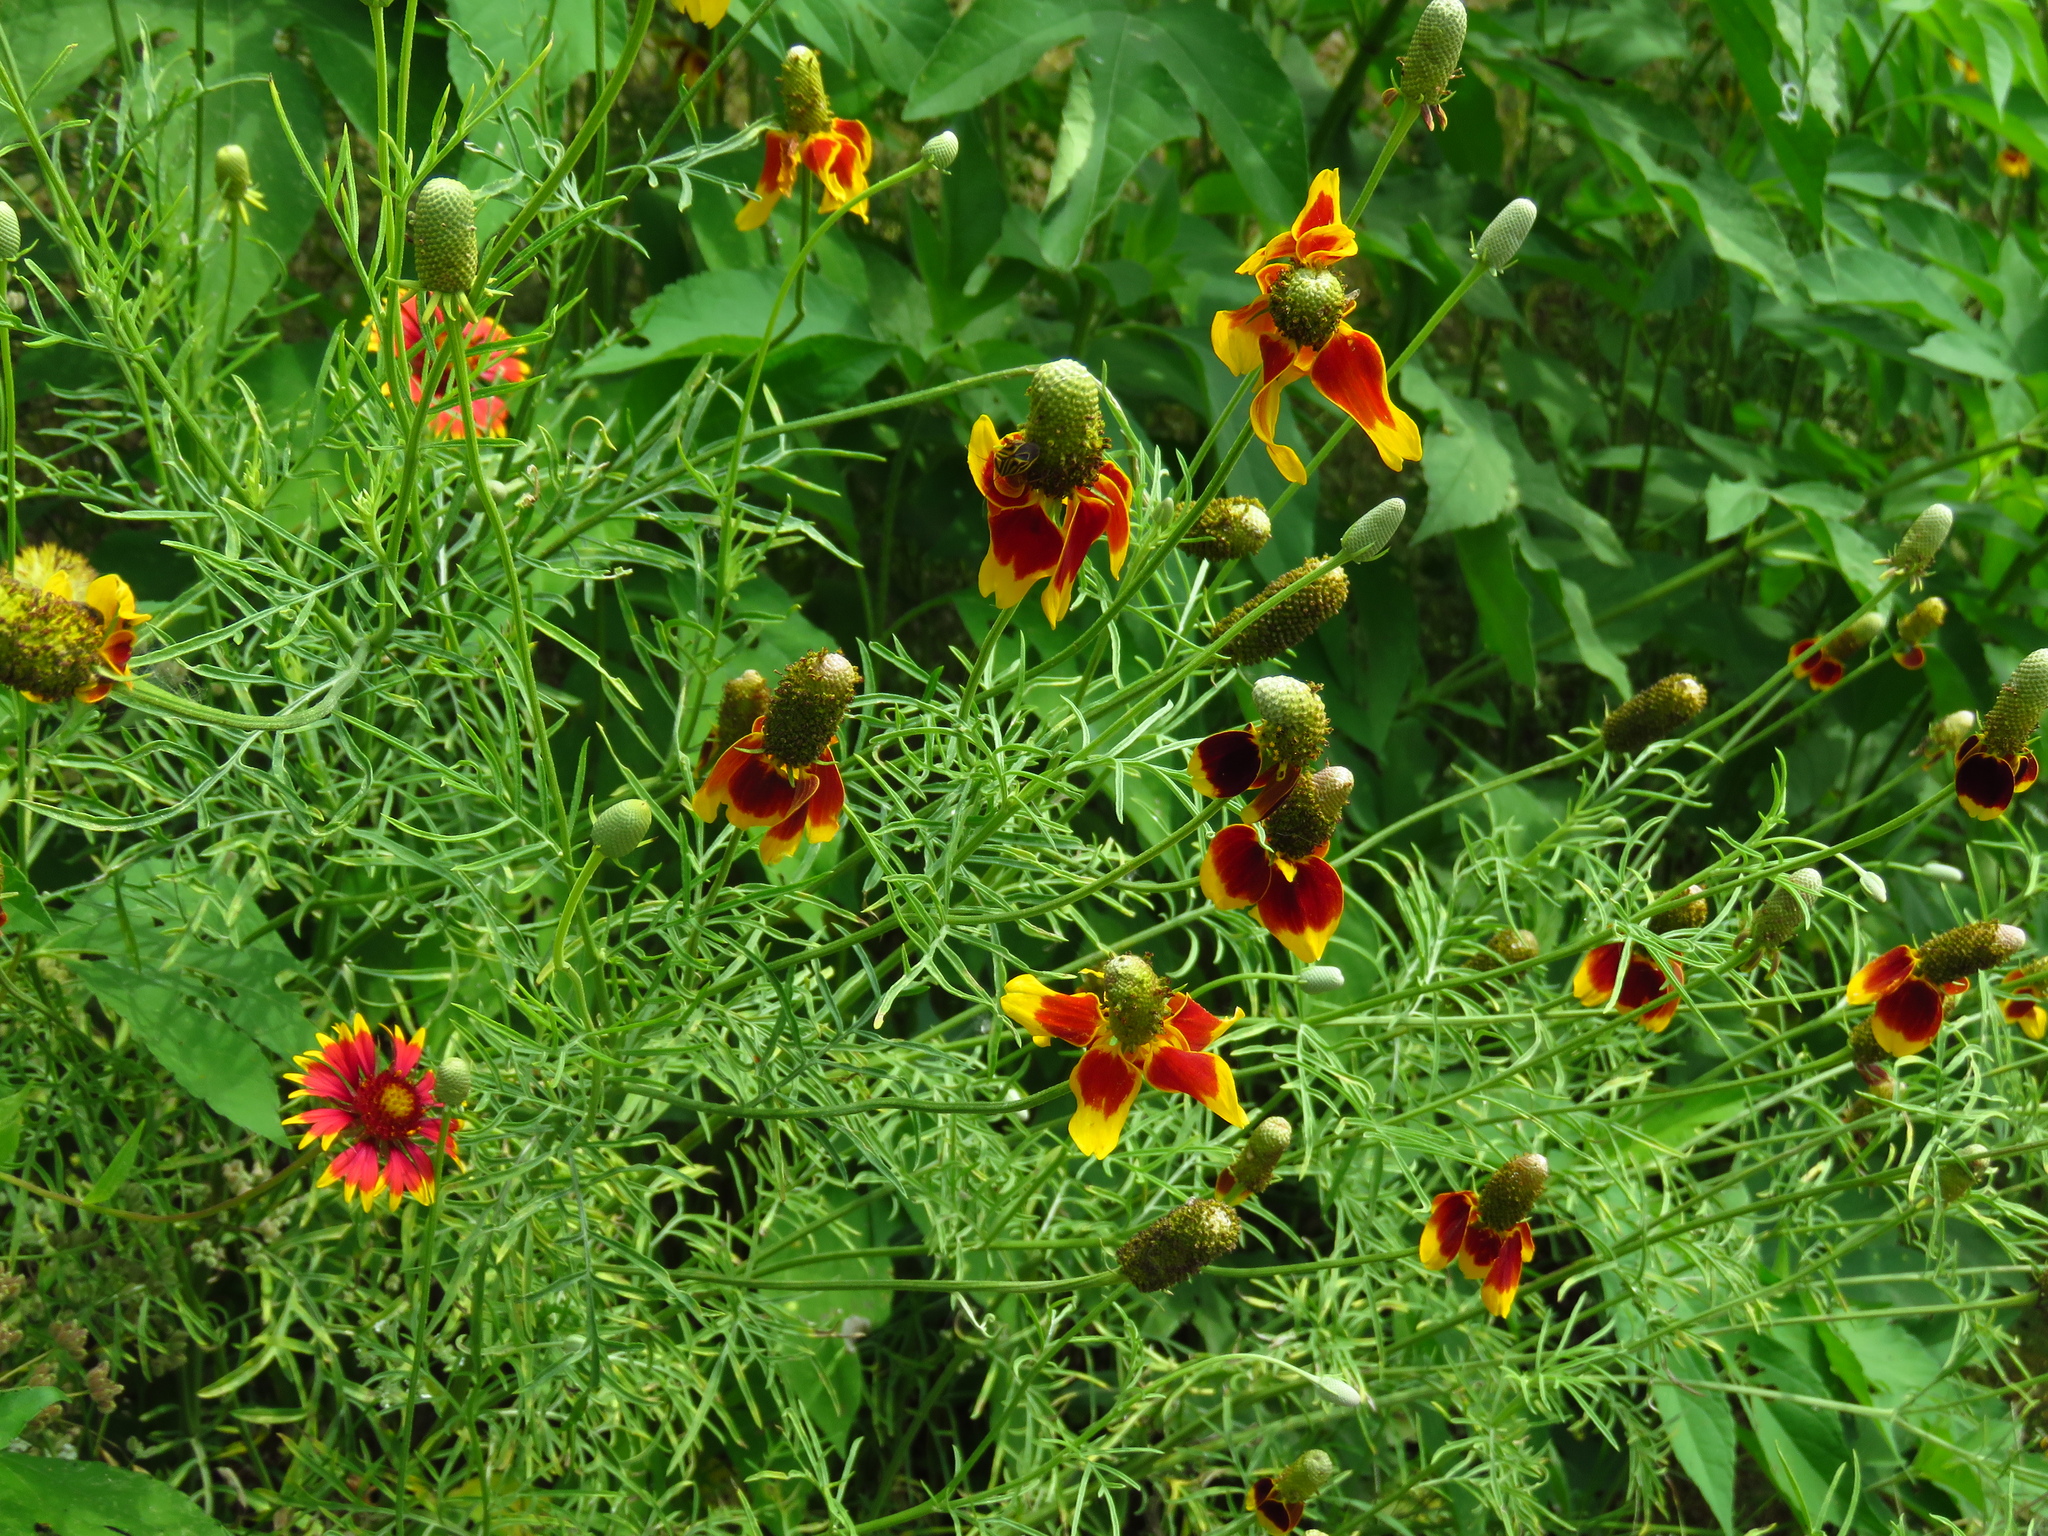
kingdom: Plantae
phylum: Tracheophyta
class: Magnoliopsida
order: Asterales
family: Asteraceae
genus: Ratibida
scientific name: Ratibida columnifera
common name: Prairie coneflower
